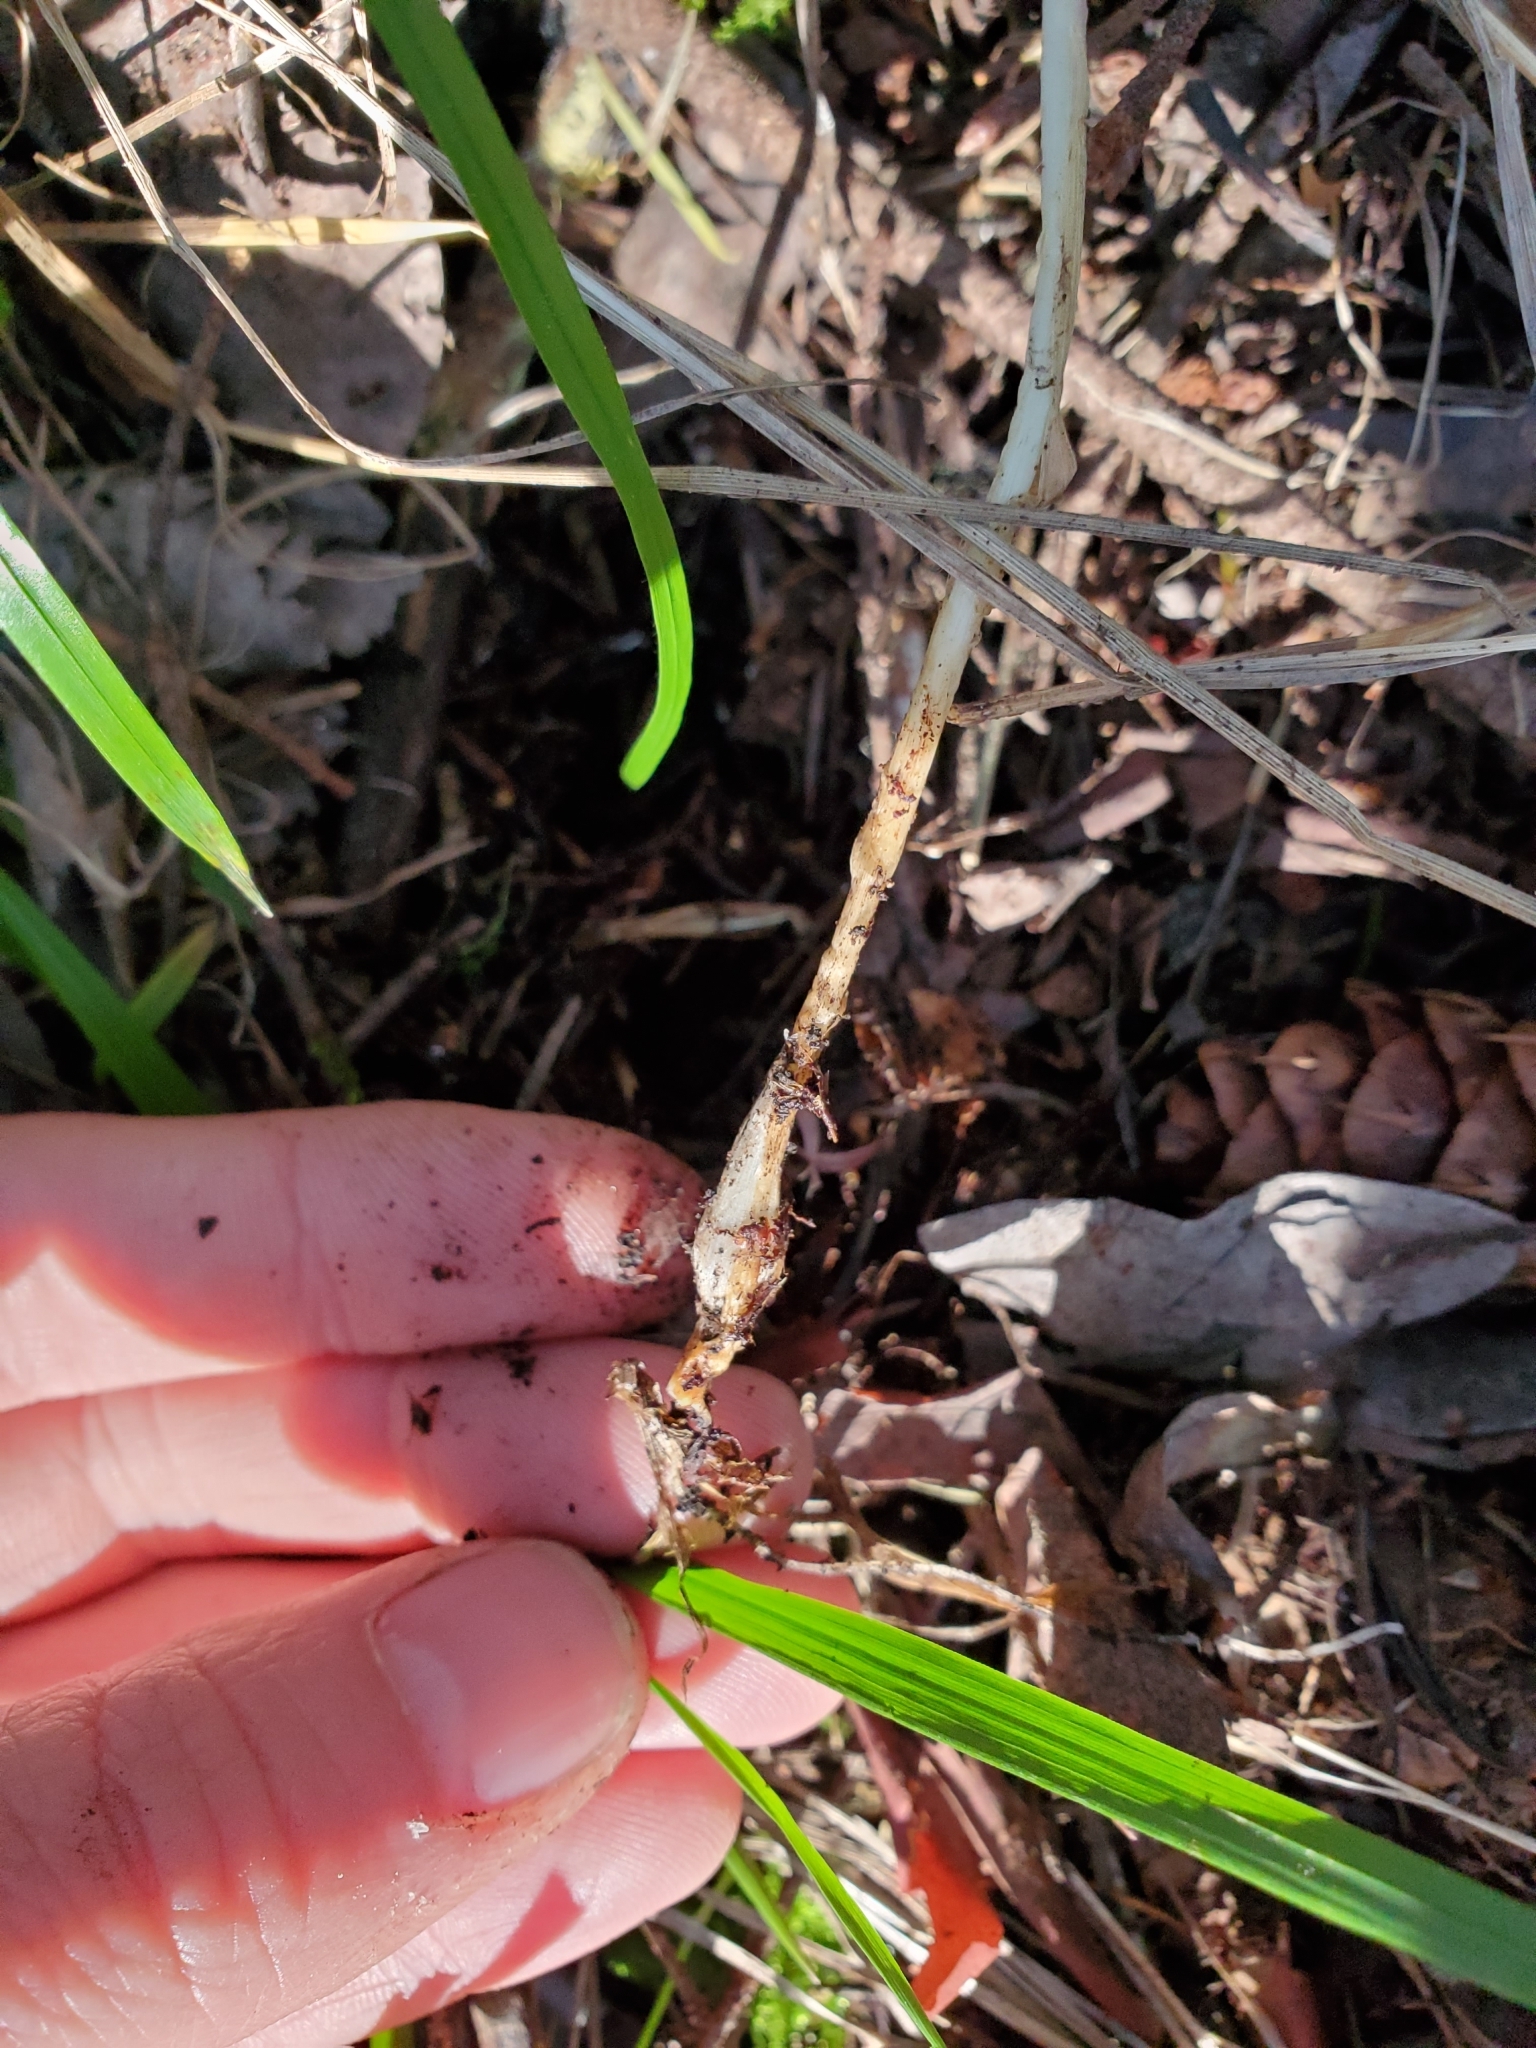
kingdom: Plantae
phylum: Tracheophyta
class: Liliopsida
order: Poales
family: Poaceae
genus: Melica
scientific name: Melica subulata
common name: Tapered oniongrass
